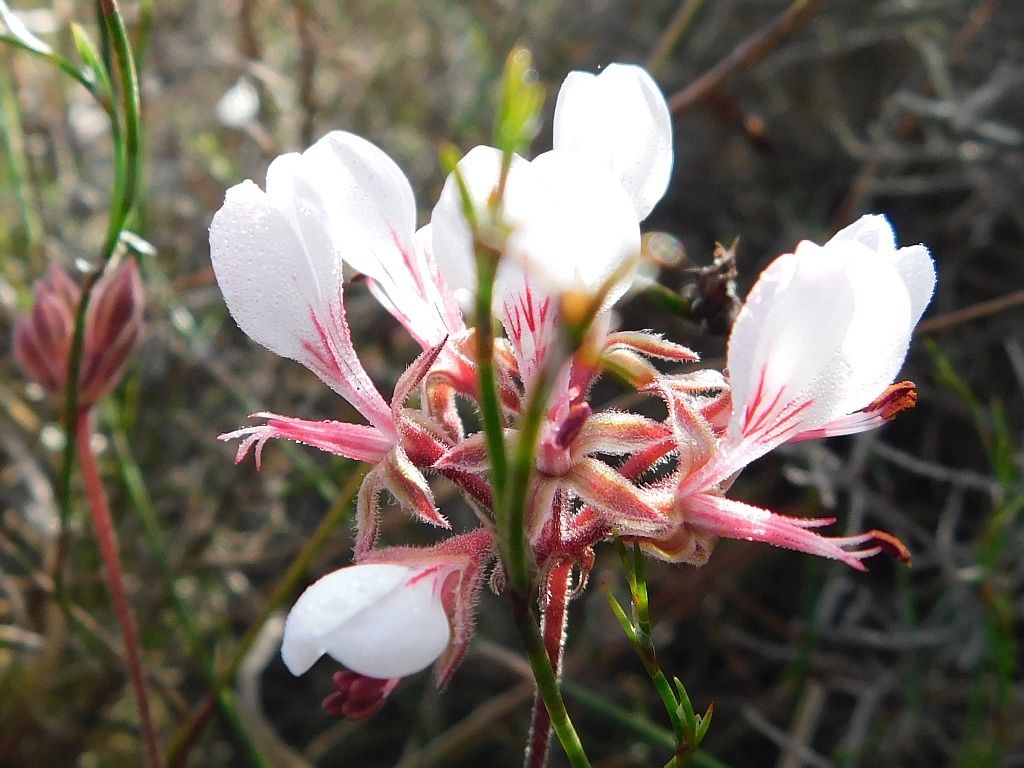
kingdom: Plantae
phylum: Tracheophyta
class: Magnoliopsida
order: Geraniales
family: Geraniaceae
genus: Pelargonium
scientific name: Pelargonium dipetalum
